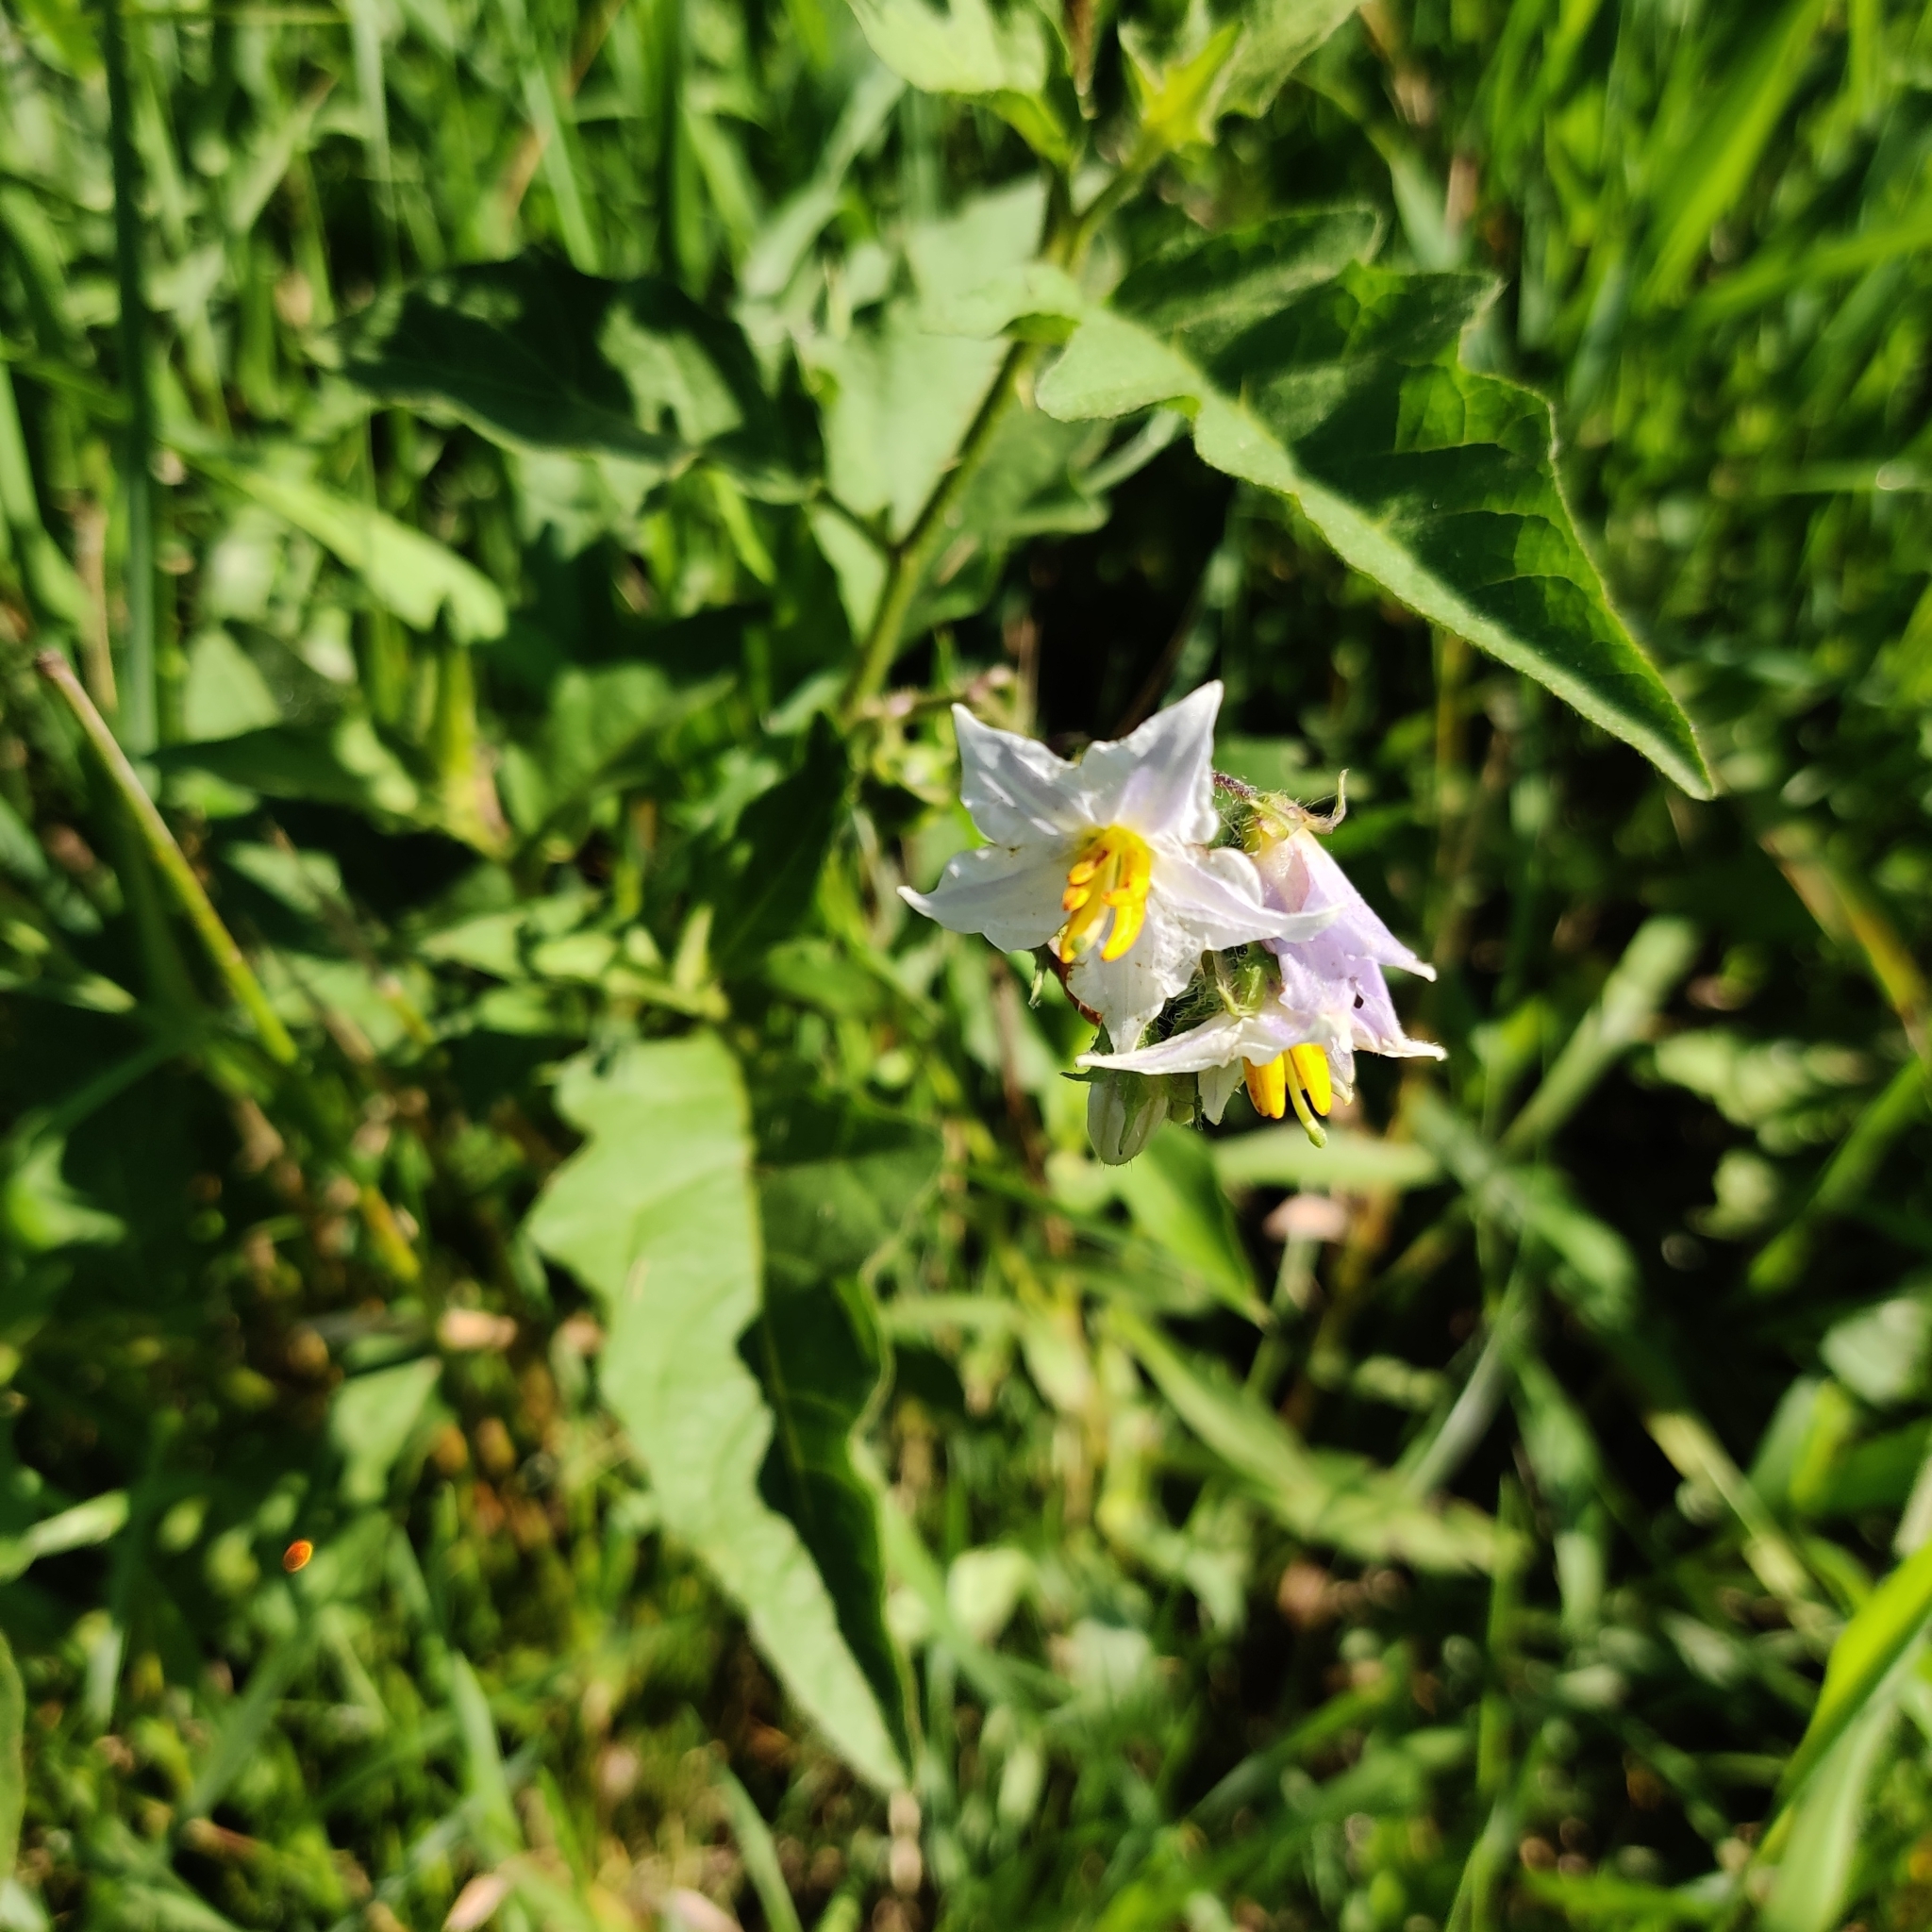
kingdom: Plantae
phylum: Tracheophyta
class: Magnoliopsida
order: Solanales
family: Solanaceae
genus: Solanum
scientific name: Solanum carolinense
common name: Horse-nettle
